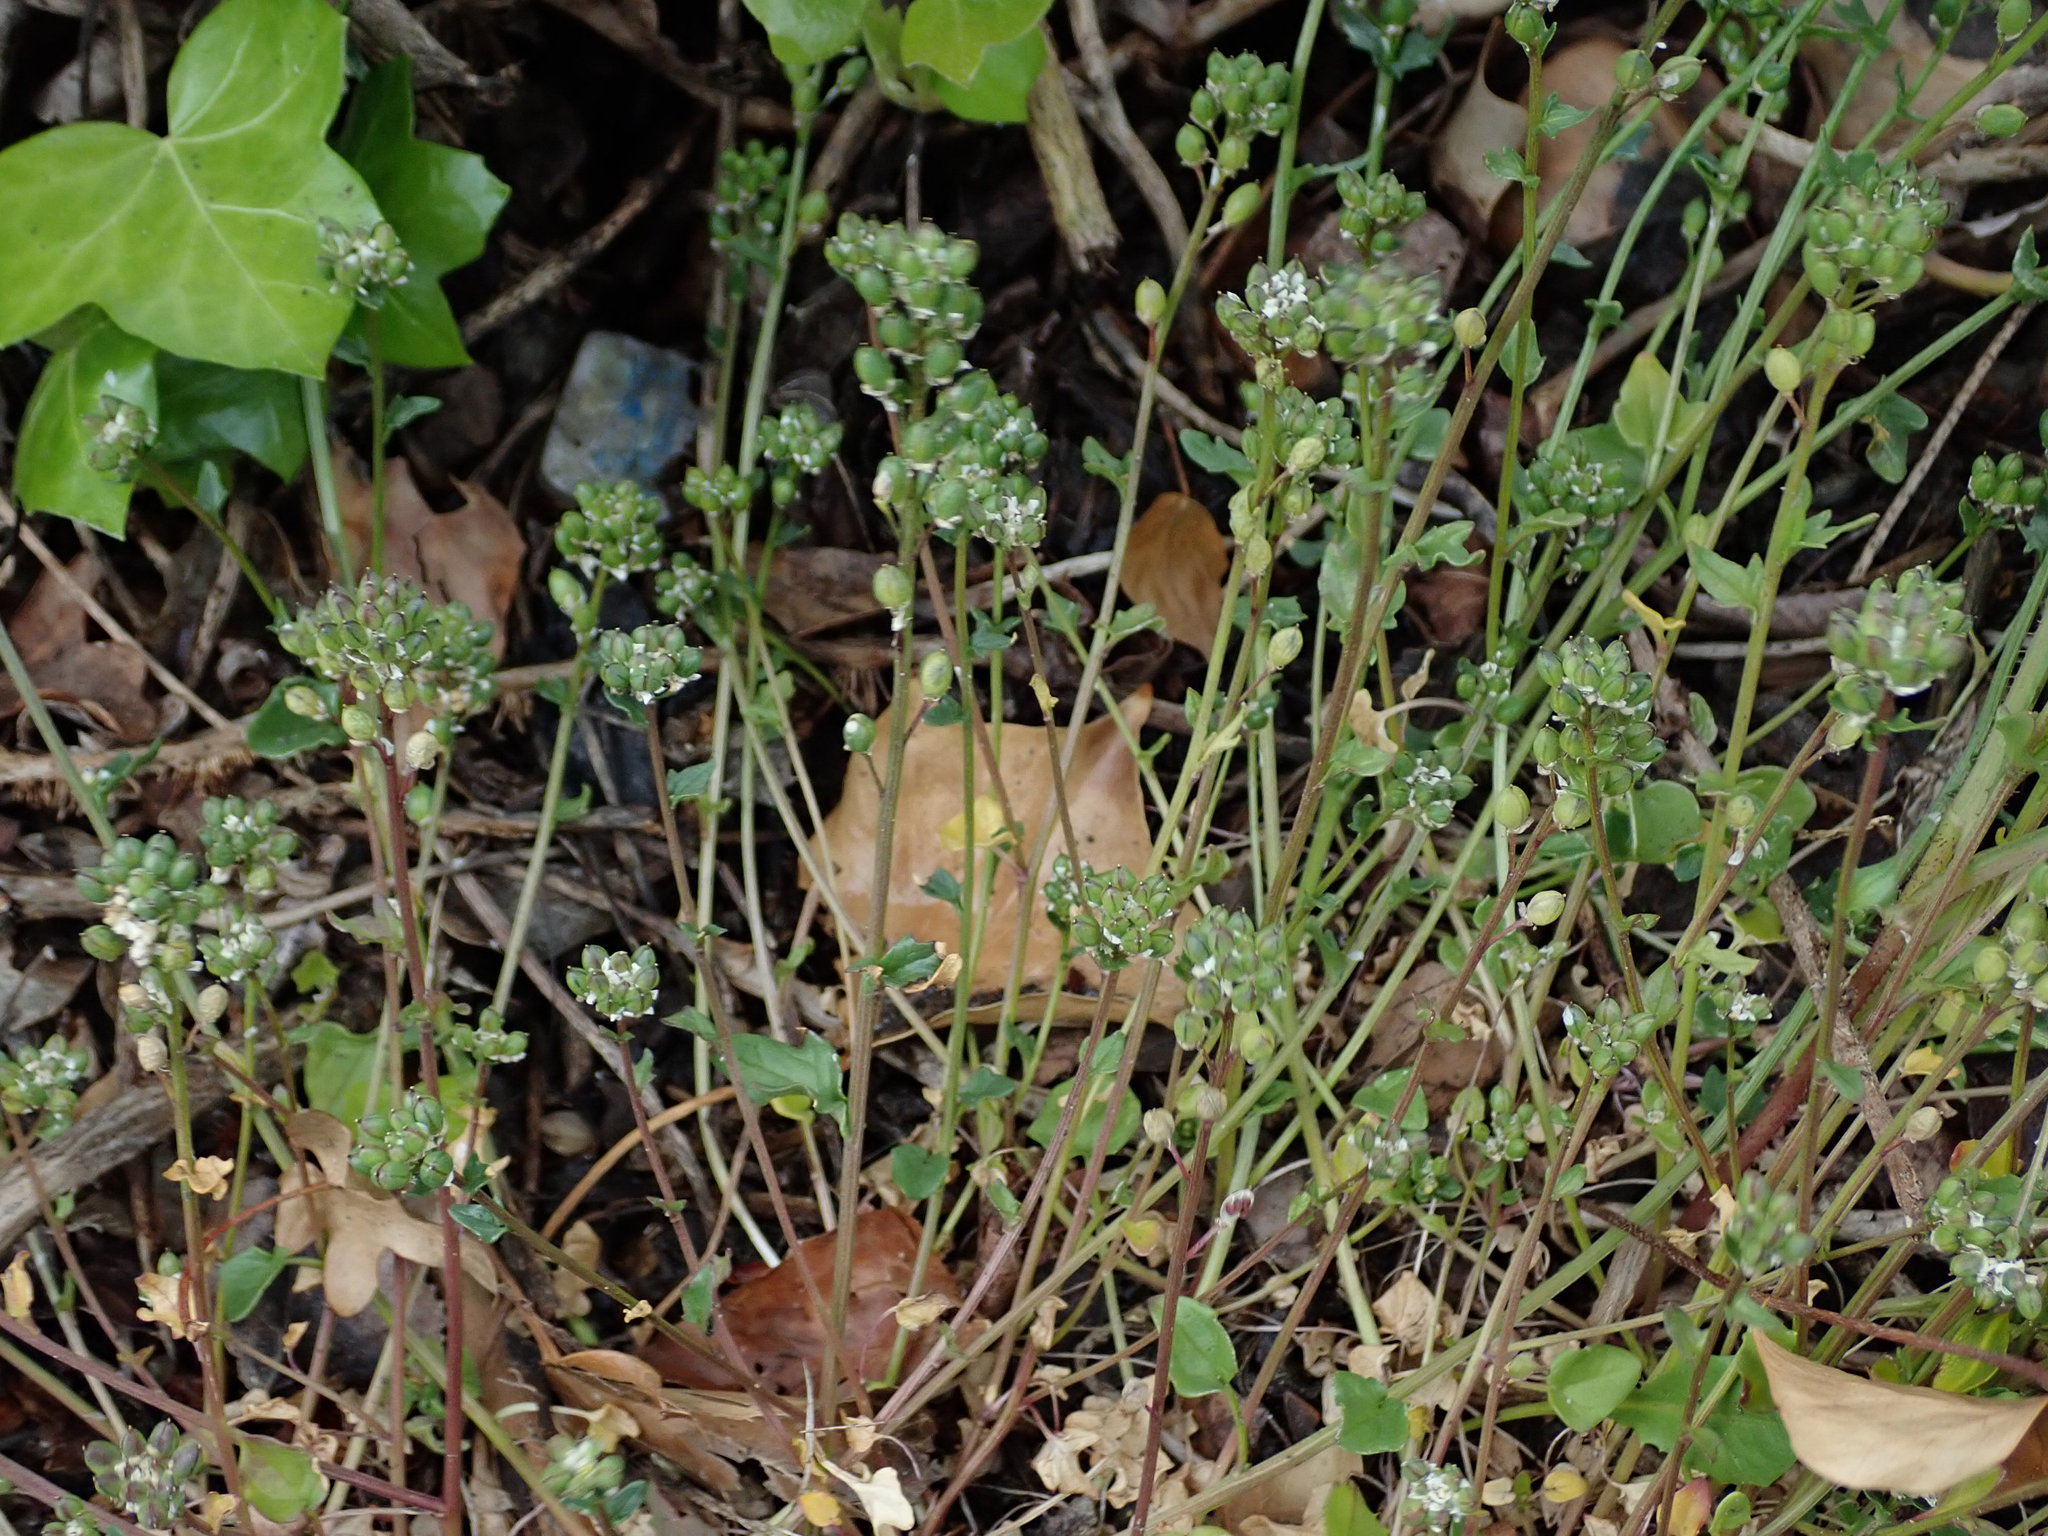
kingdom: Plantae
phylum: Tracheophyta
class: Magnoliopsida
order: Brassicales
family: Brassicaceae
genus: Cochlearia
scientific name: Cochlearia danica
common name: Early scurvygrass
